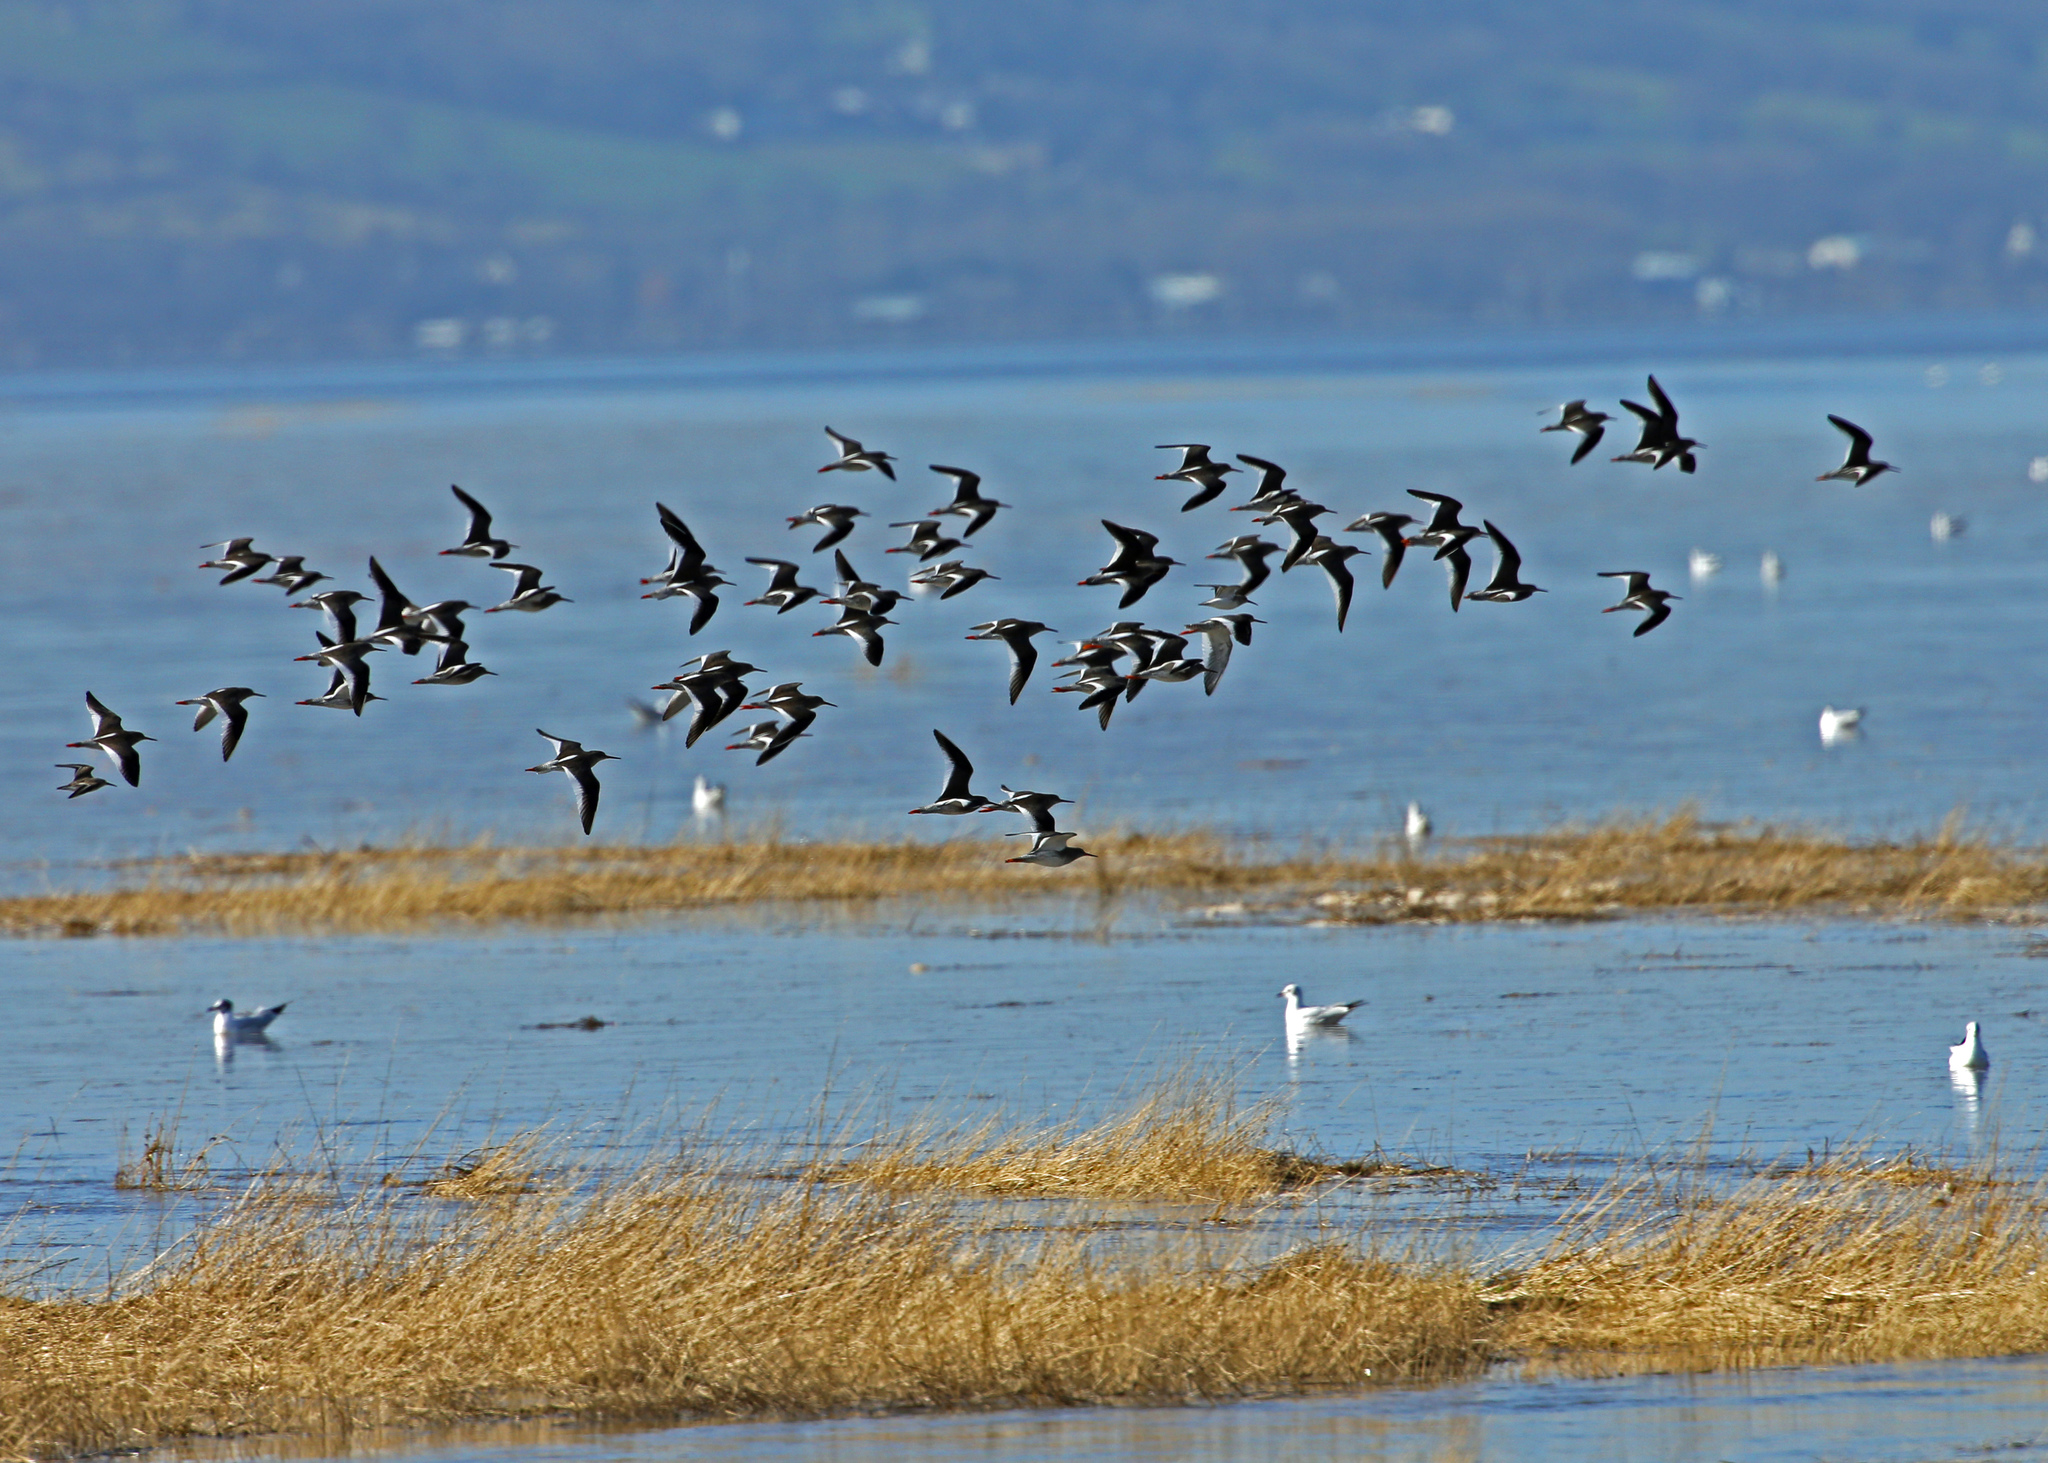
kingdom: Animalia
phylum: Chordata
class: Aves
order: Charadriiformes
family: Scolopacidae
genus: Tringa
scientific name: Tringa totanus
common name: Common redshank
